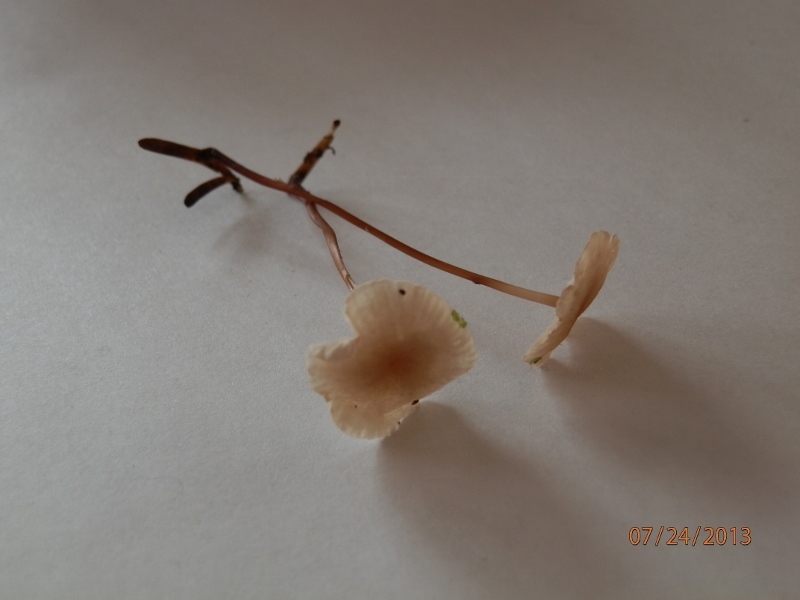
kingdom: Fungi
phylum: Basidiomycota
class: Agaricomycetes
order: Agaricales
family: Omphalotaceae
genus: Mycetinis
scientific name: Mycetinis scorodonius
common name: Vampires bane
